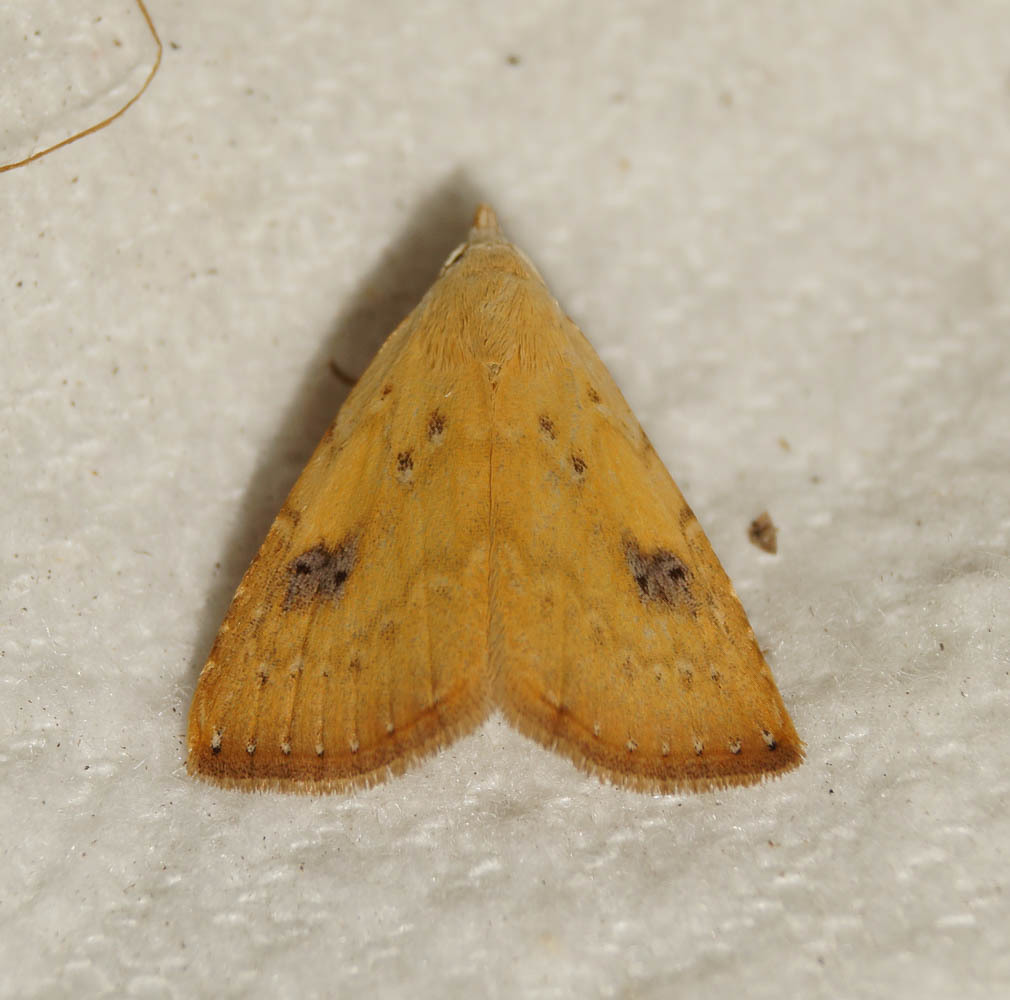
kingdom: Animalia
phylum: Arthropoda
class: Insecta
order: Lepidoptera
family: Erebidae
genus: Rivula
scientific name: Rivula sericealis
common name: Straw dot
